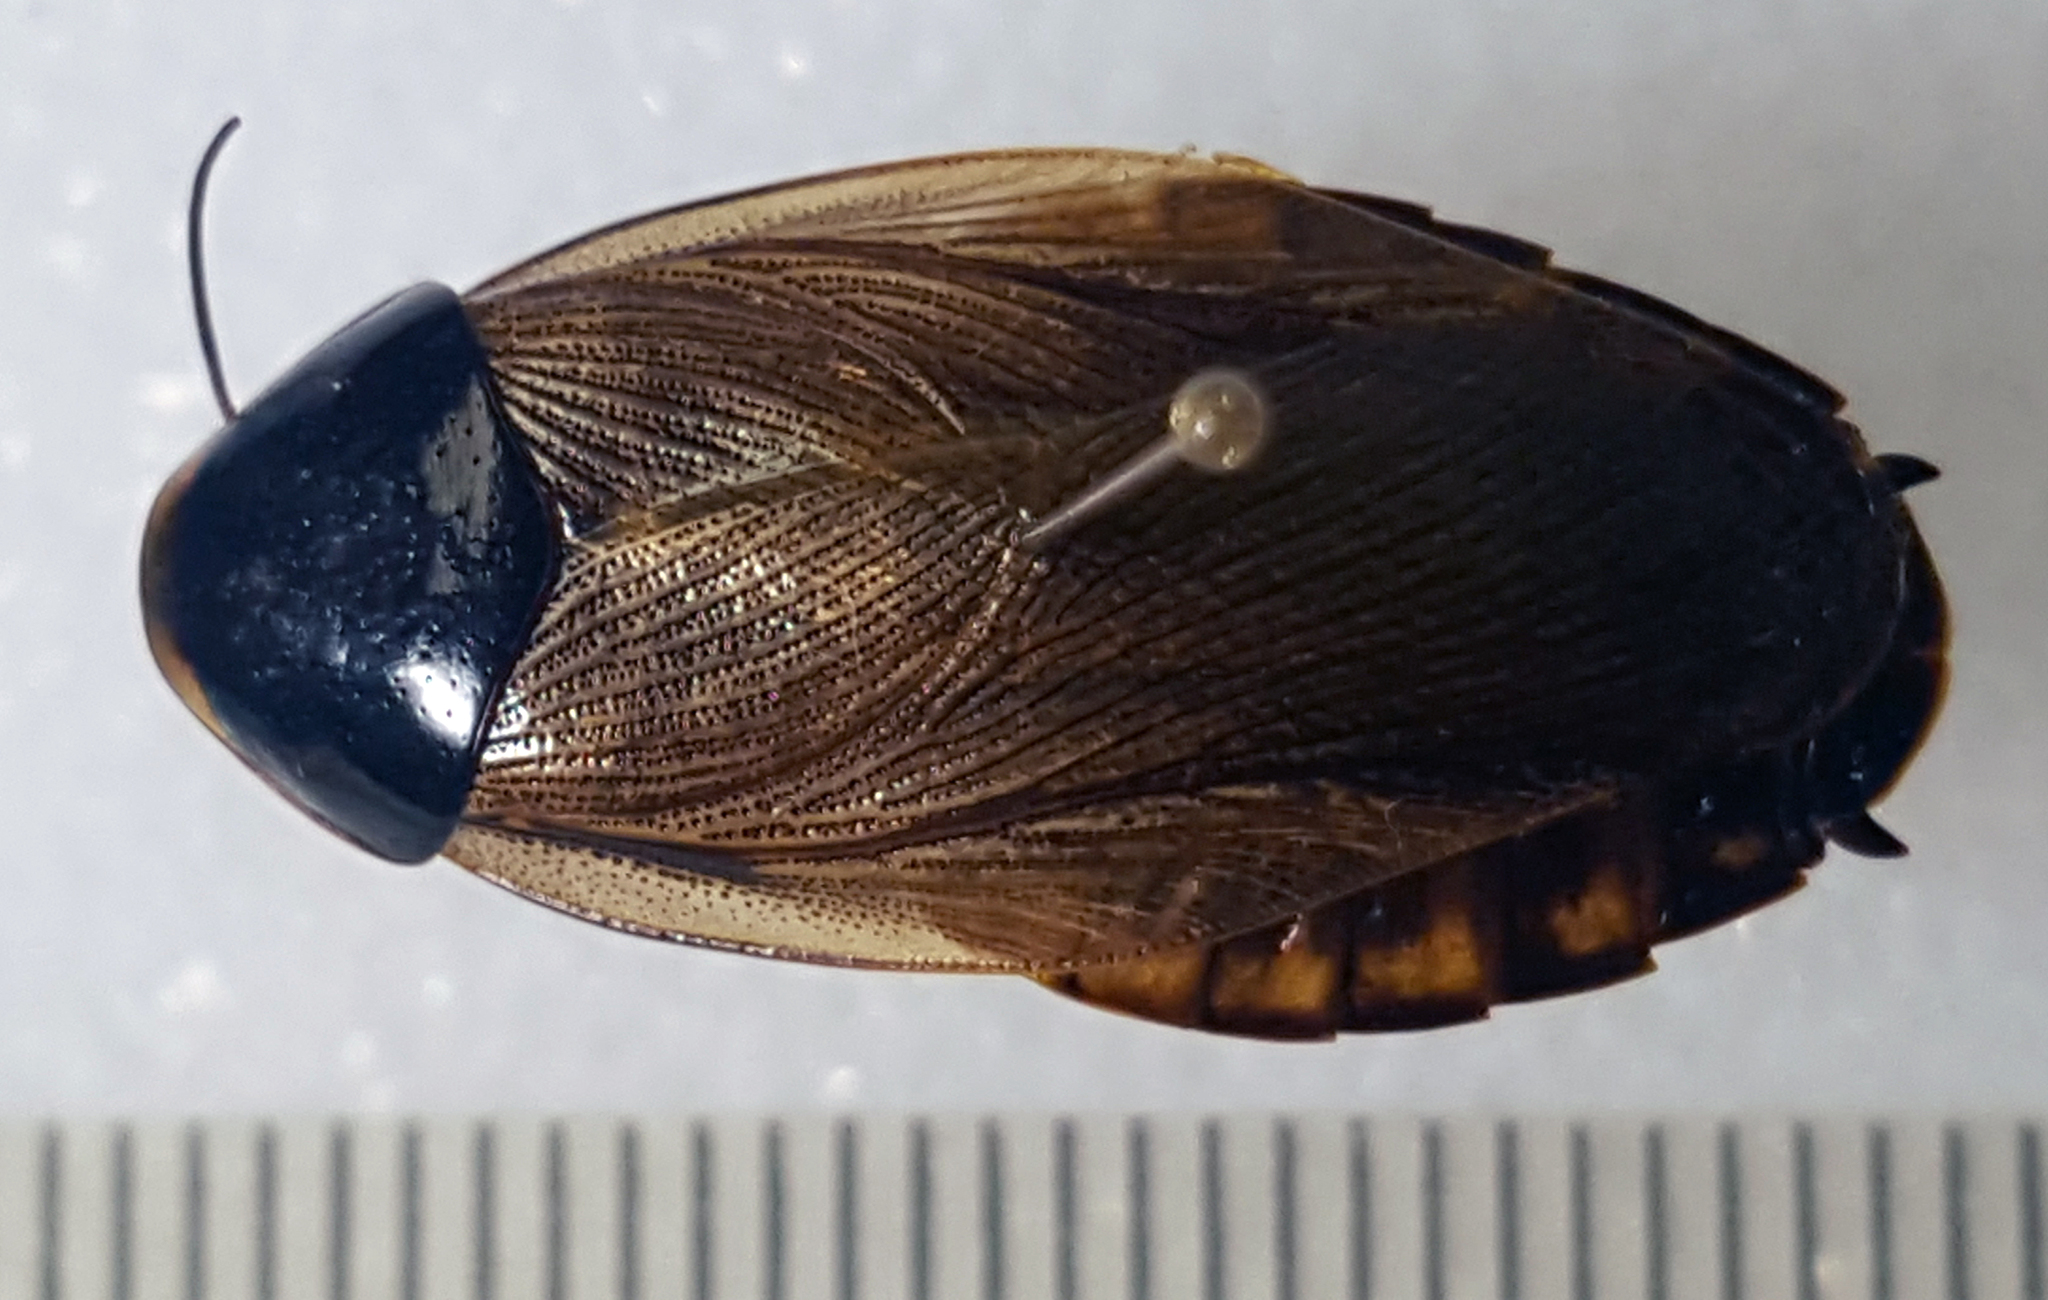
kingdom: Animalia
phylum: Arthropoda
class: Insecta
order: Blattodea
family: Blaberidae
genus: Pycnoscelus
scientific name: Pycnoscelus surinamensis
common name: Surinam cockroach
